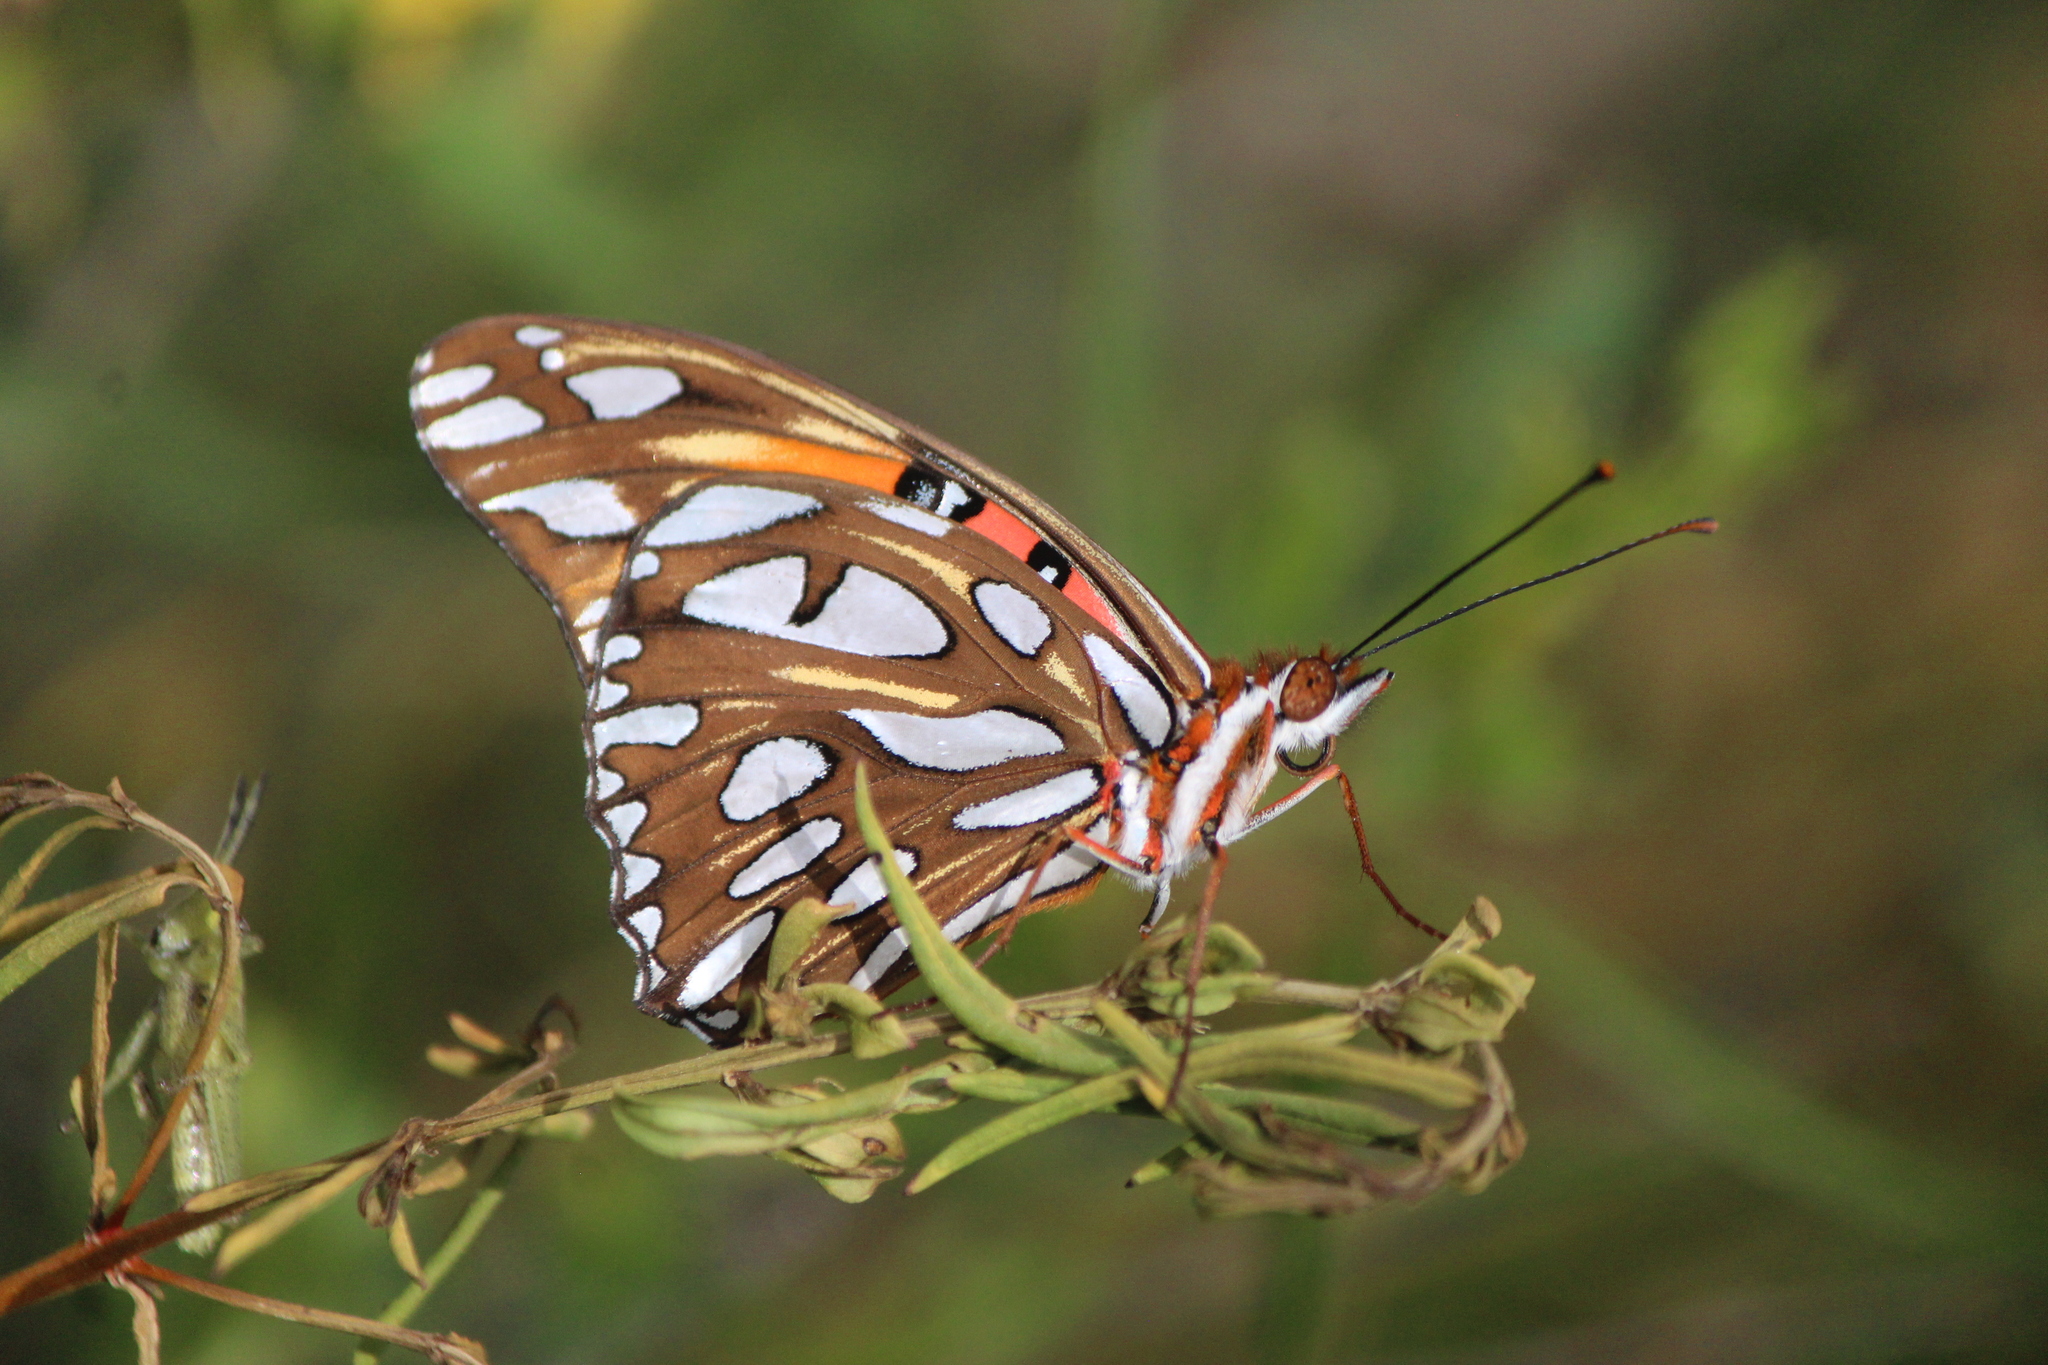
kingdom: Animalia
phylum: Arthropoda
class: Insecta
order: Lepidoptera
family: Nymphalidae
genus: Dione
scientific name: Dione vanillae
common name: Gulf fritillary
